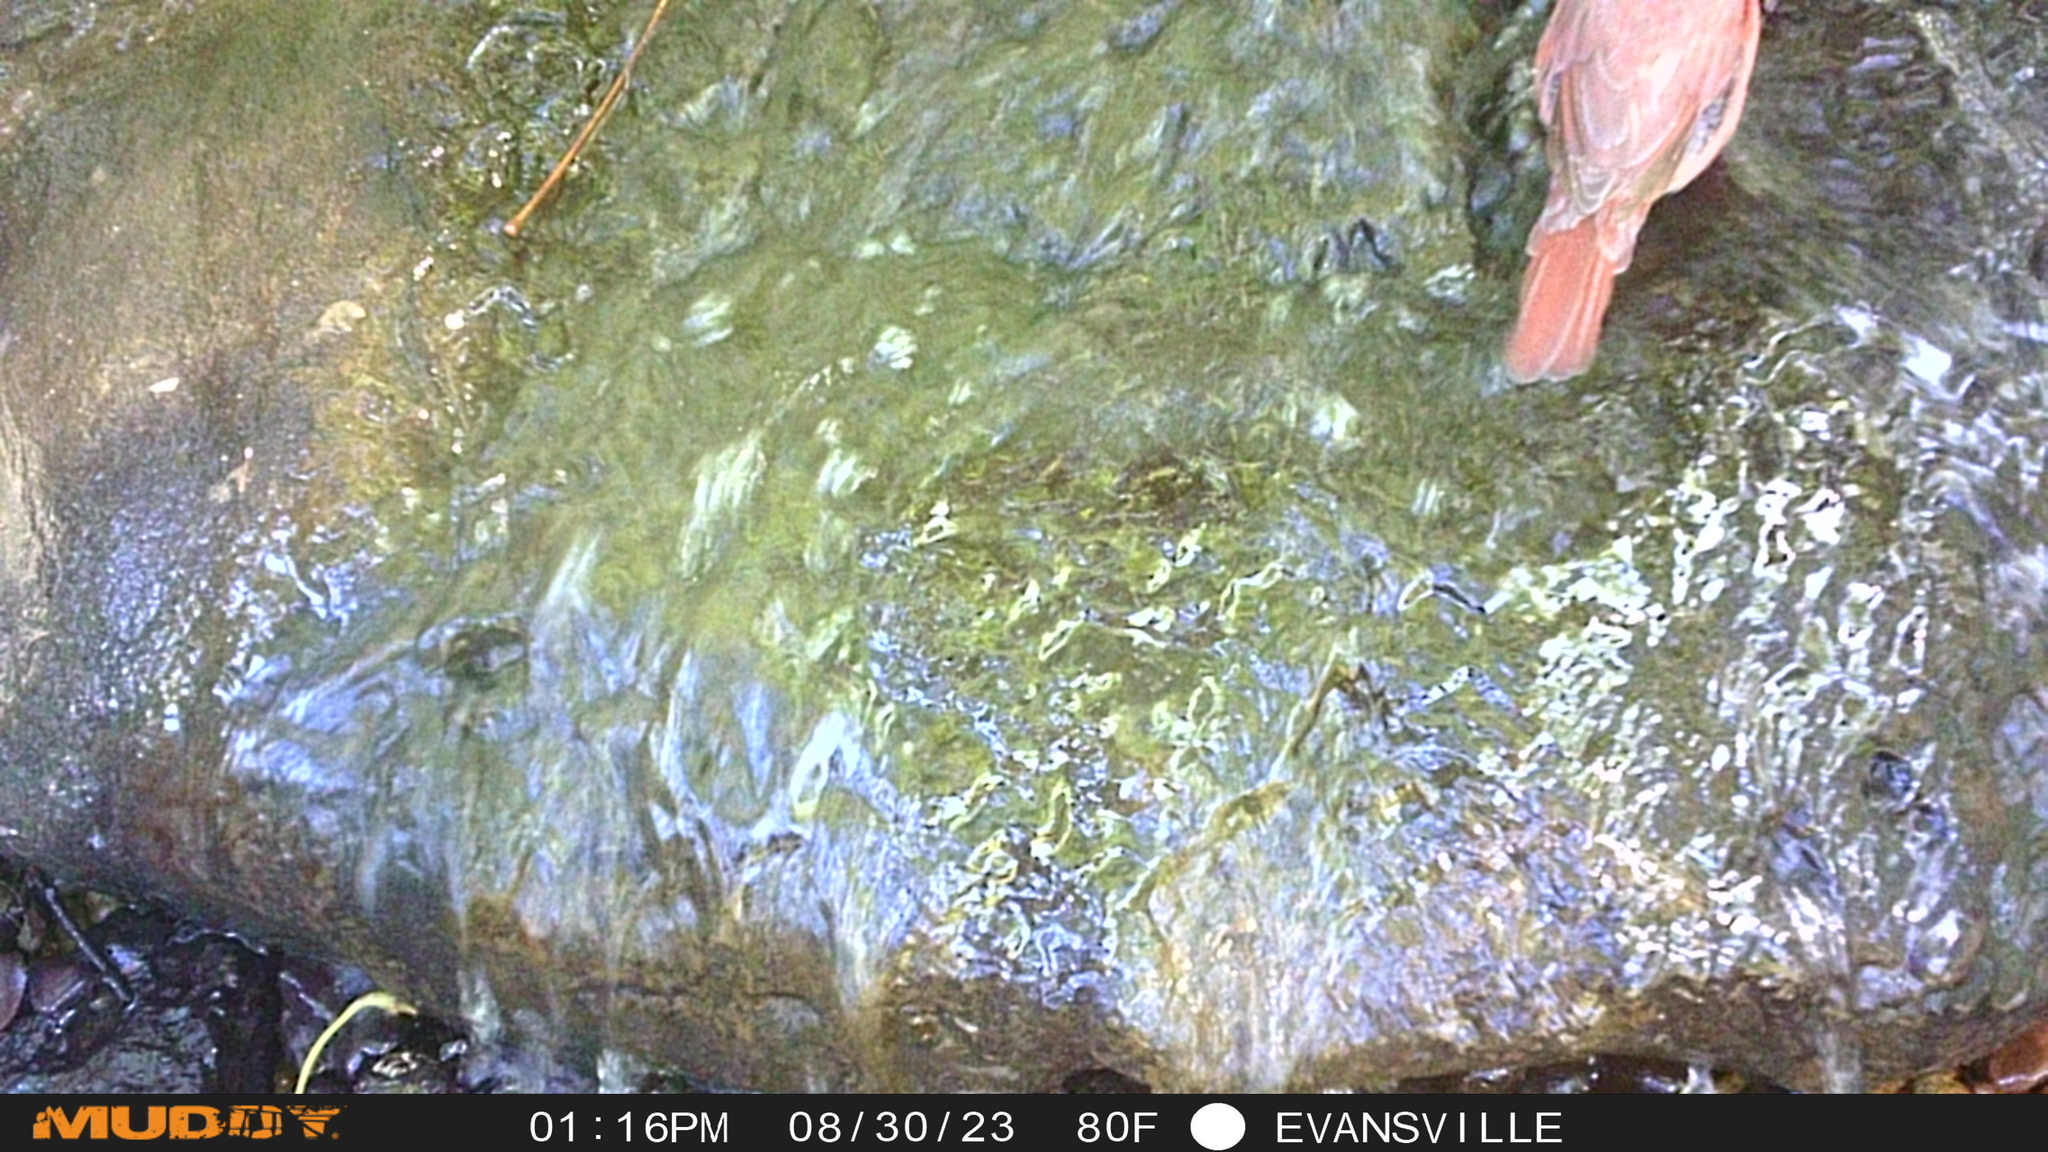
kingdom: Animalia
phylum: Chordata
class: Aves
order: Passeriformes
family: Cardinalidae
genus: Cardinalis
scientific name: Cardinalis cardinalis
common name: Northern cardinal
